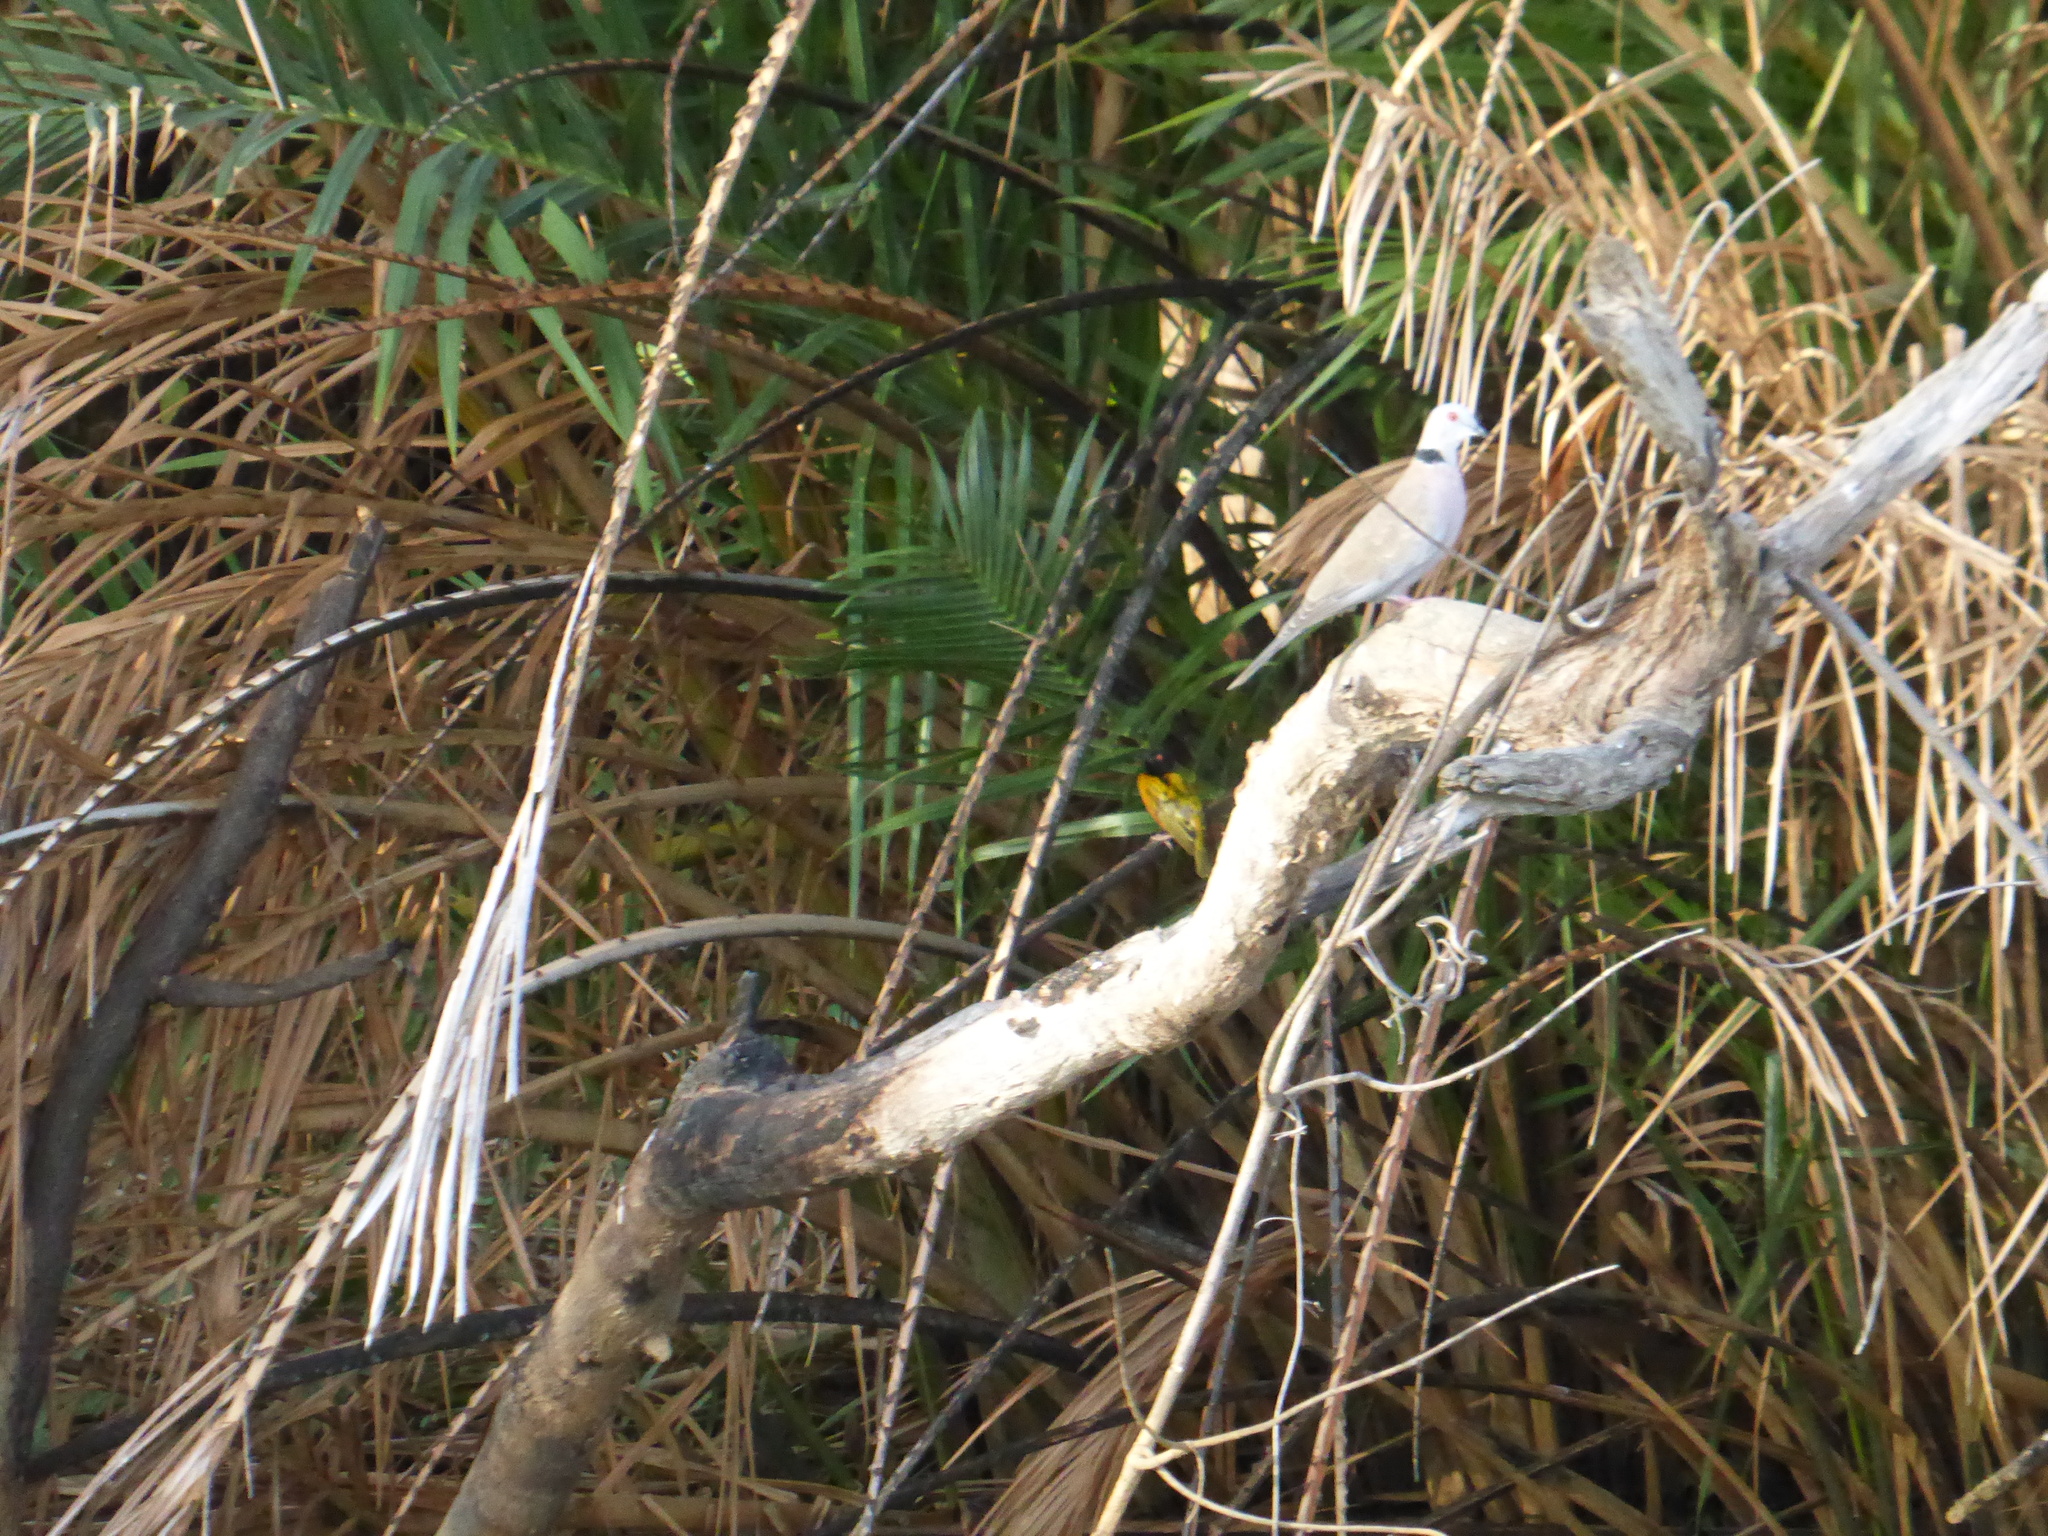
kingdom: Animalia
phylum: Chordata
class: Aves
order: Columbiformes
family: Columbidae
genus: Streptopelia
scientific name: Streptopelia decipiens
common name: Mourning collared dove
